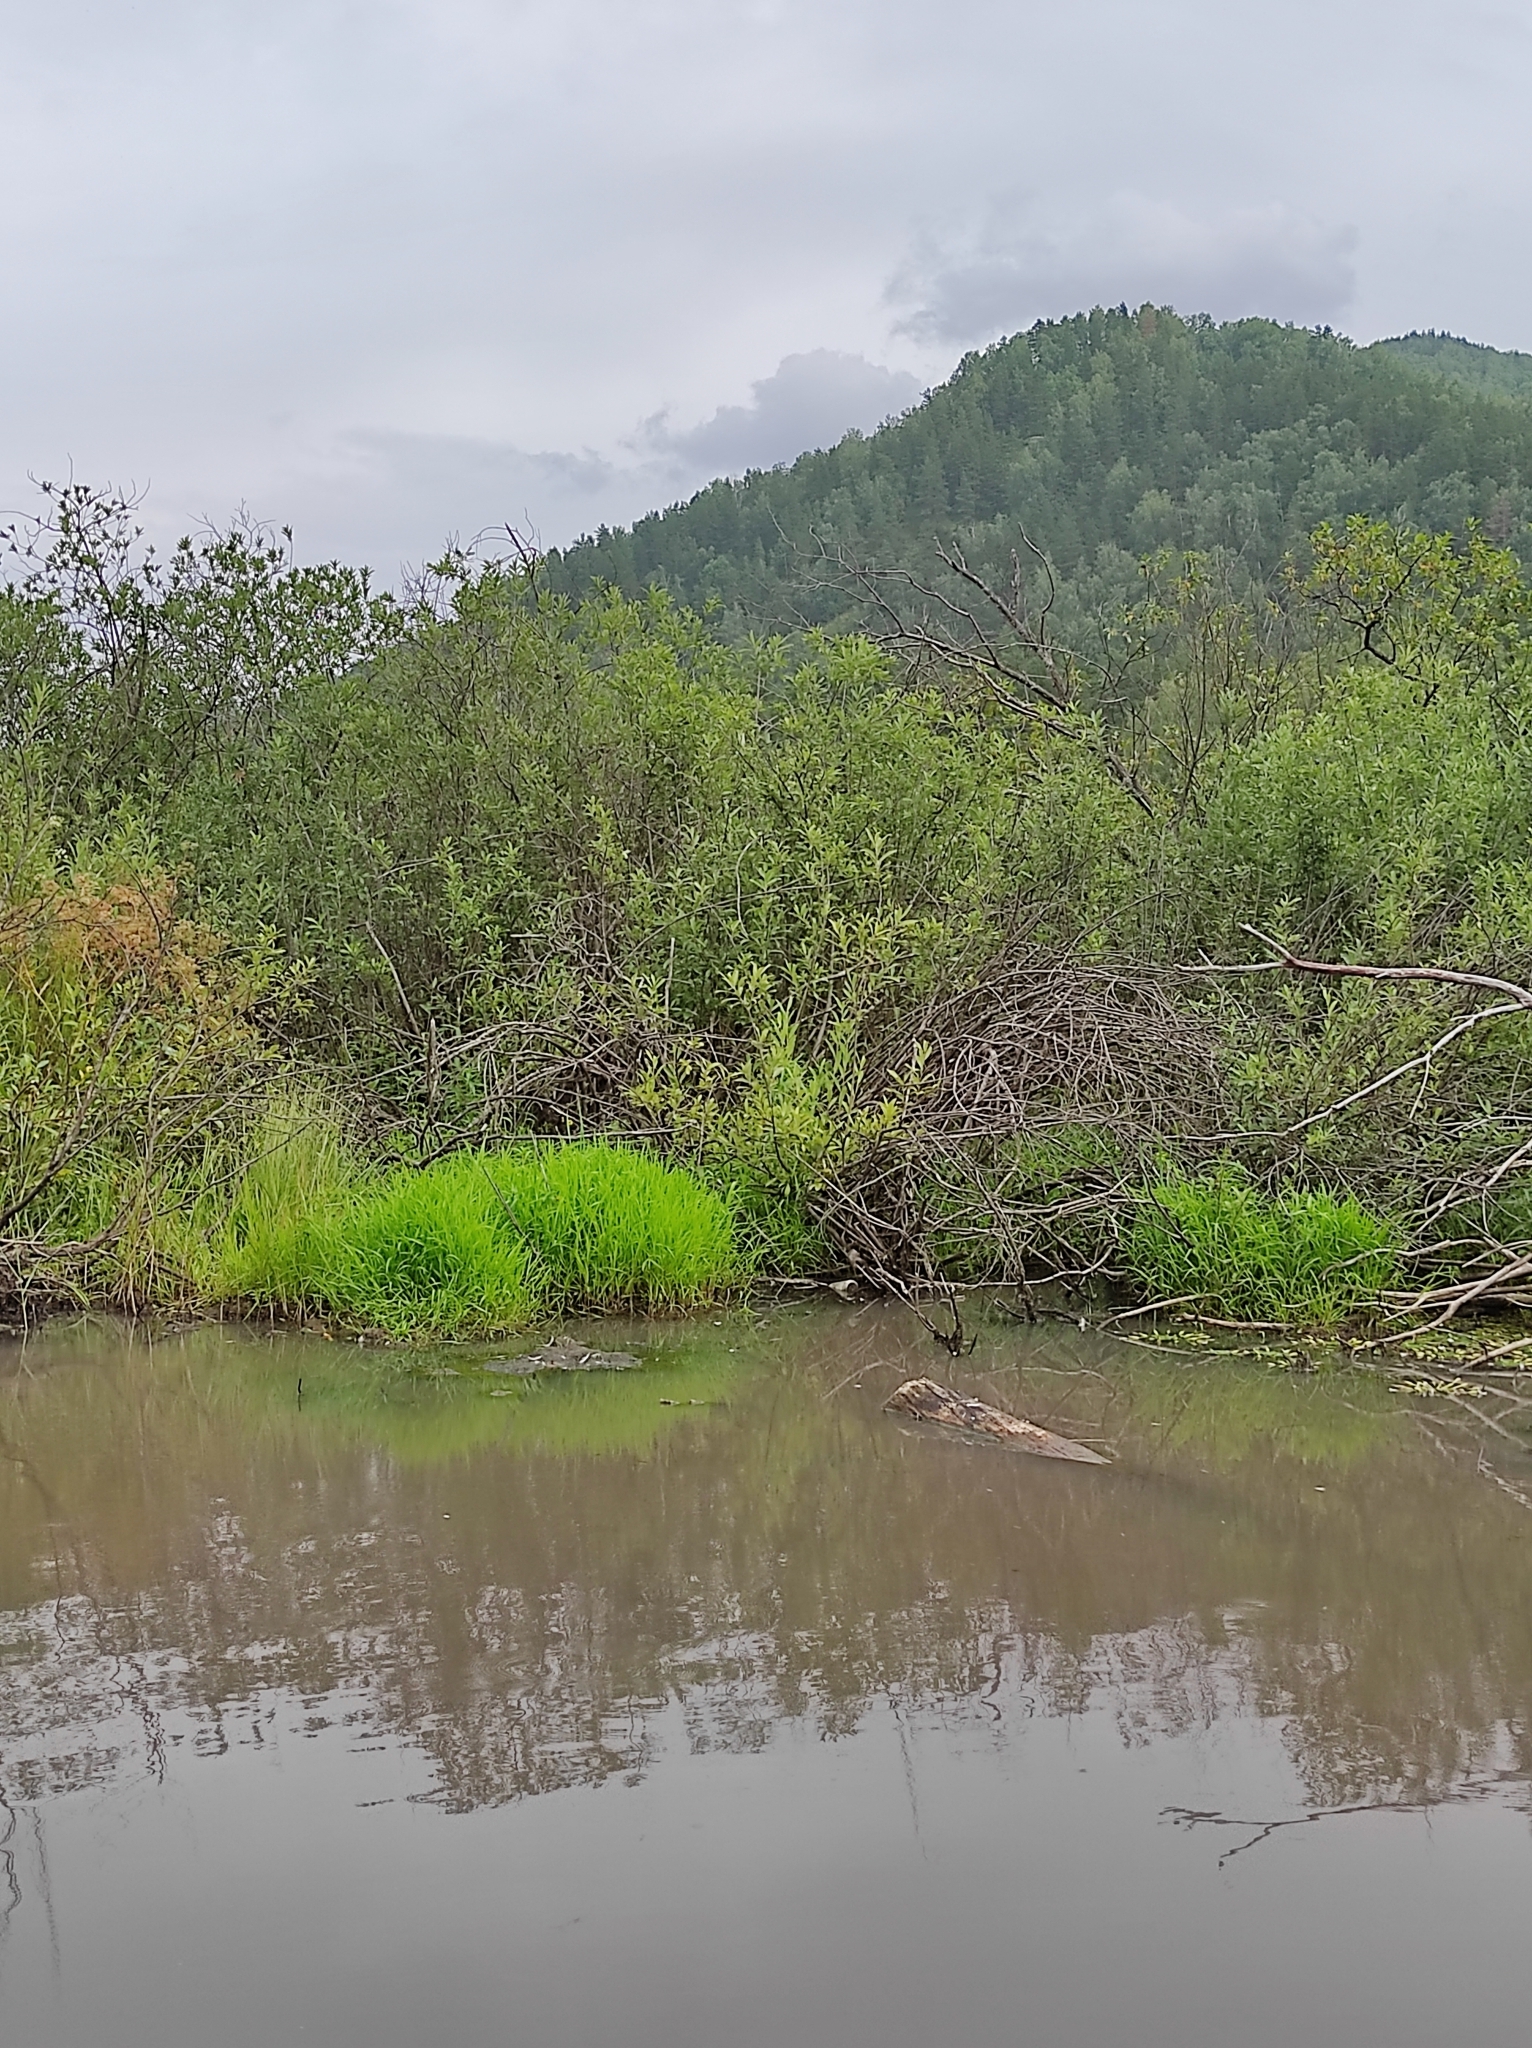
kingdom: Plantae
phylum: Tracheophyta
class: Pinopsida
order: Pinales
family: Pinaceae
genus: Pinus
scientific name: Pinus sylvestris
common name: Scots pine
